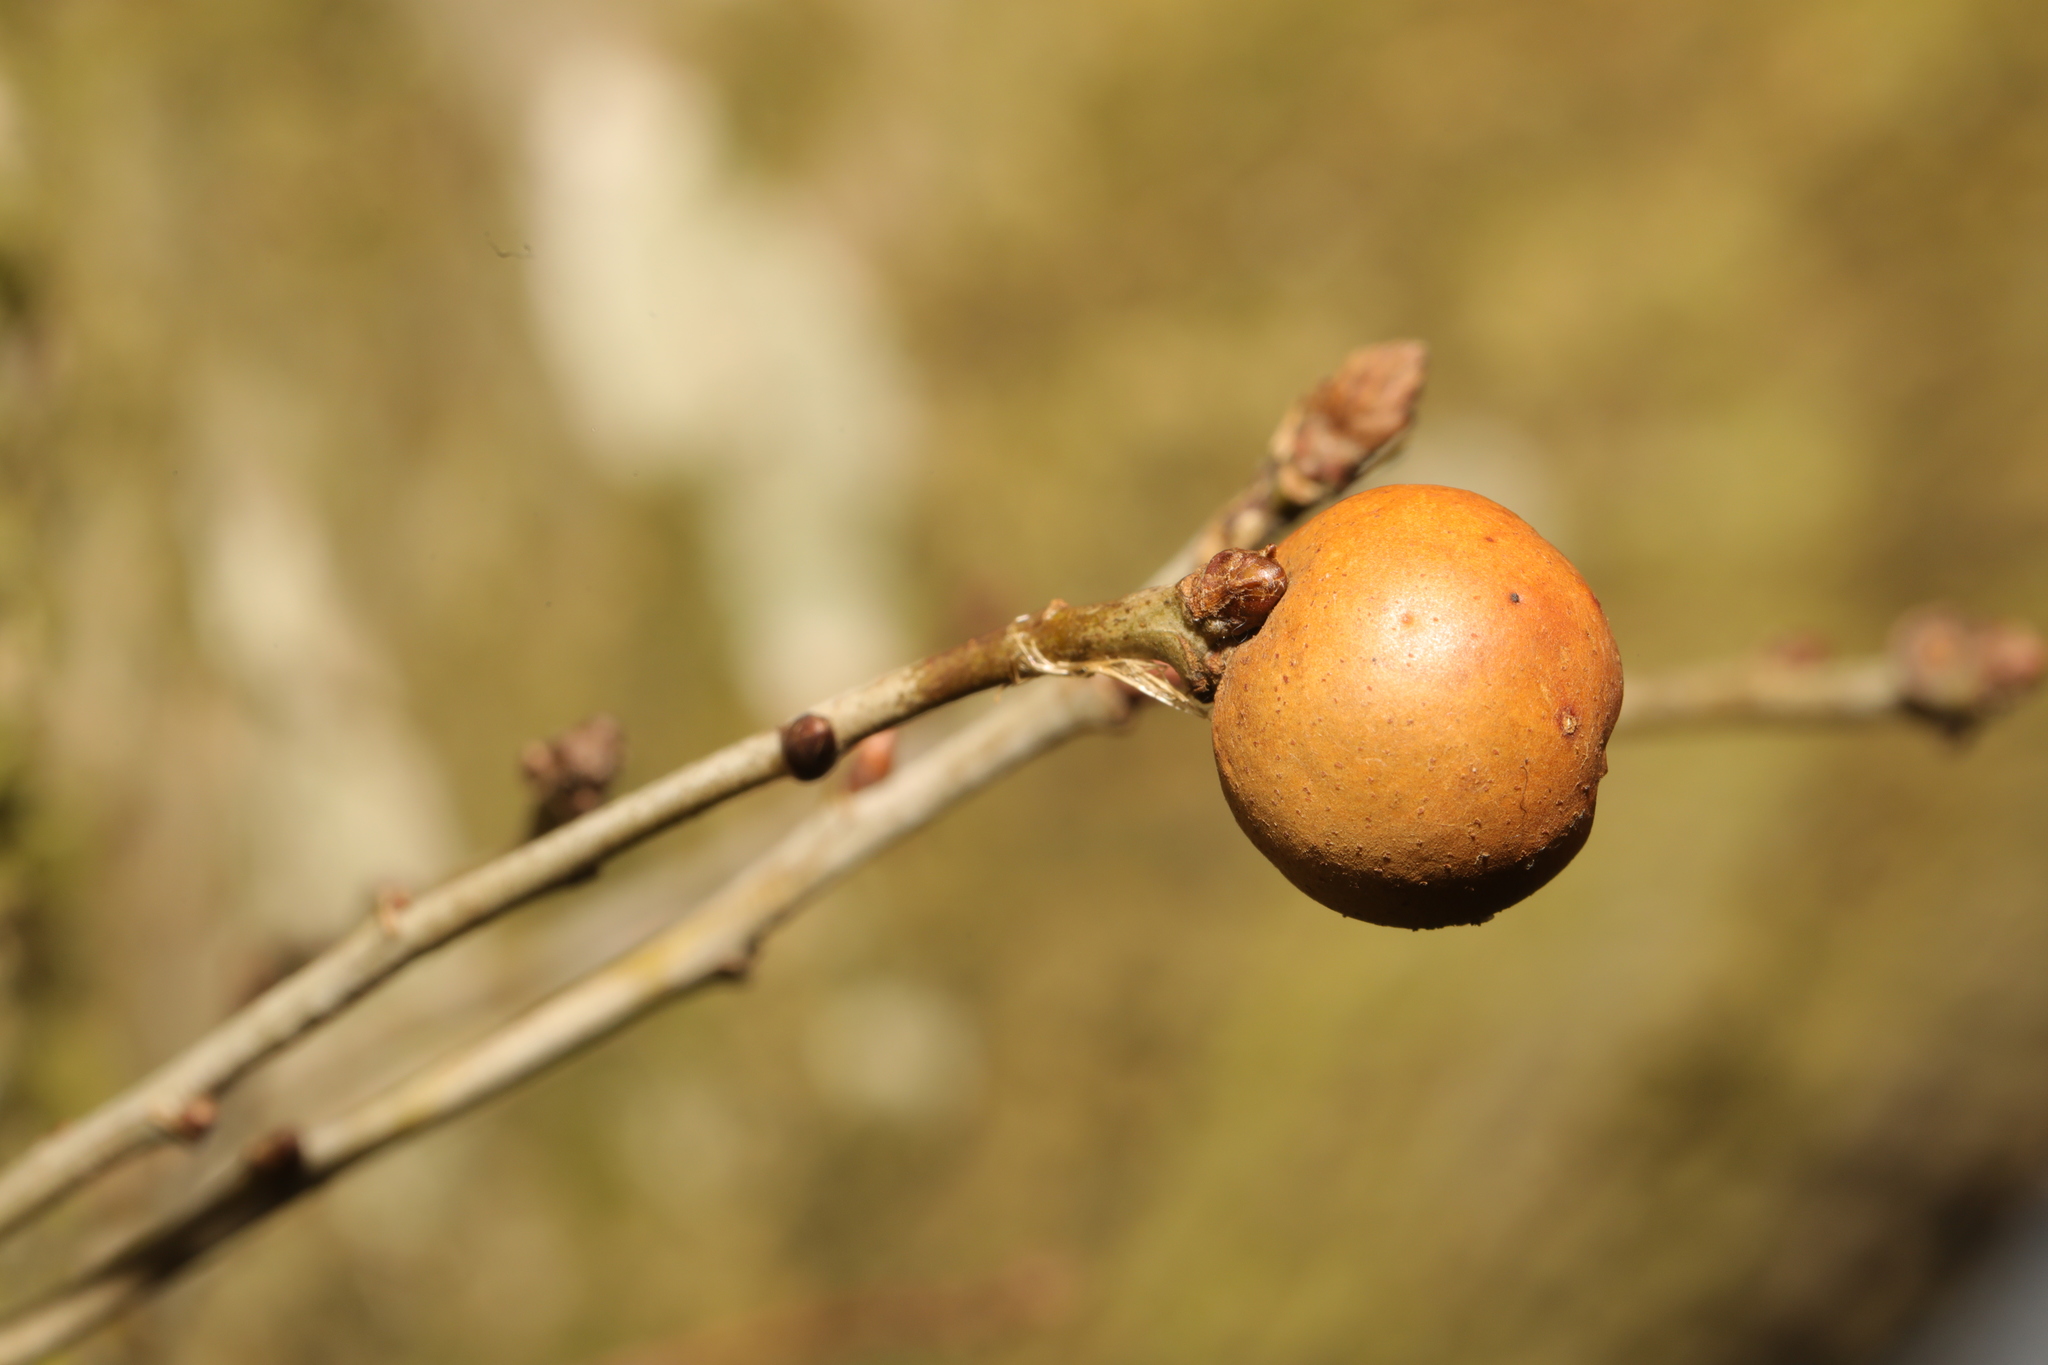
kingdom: Animalia
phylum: Arthropoda
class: Insecta
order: Hymenoptera
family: Cynipidae
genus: Andricus
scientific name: Andricus kollari
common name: Marble gall
